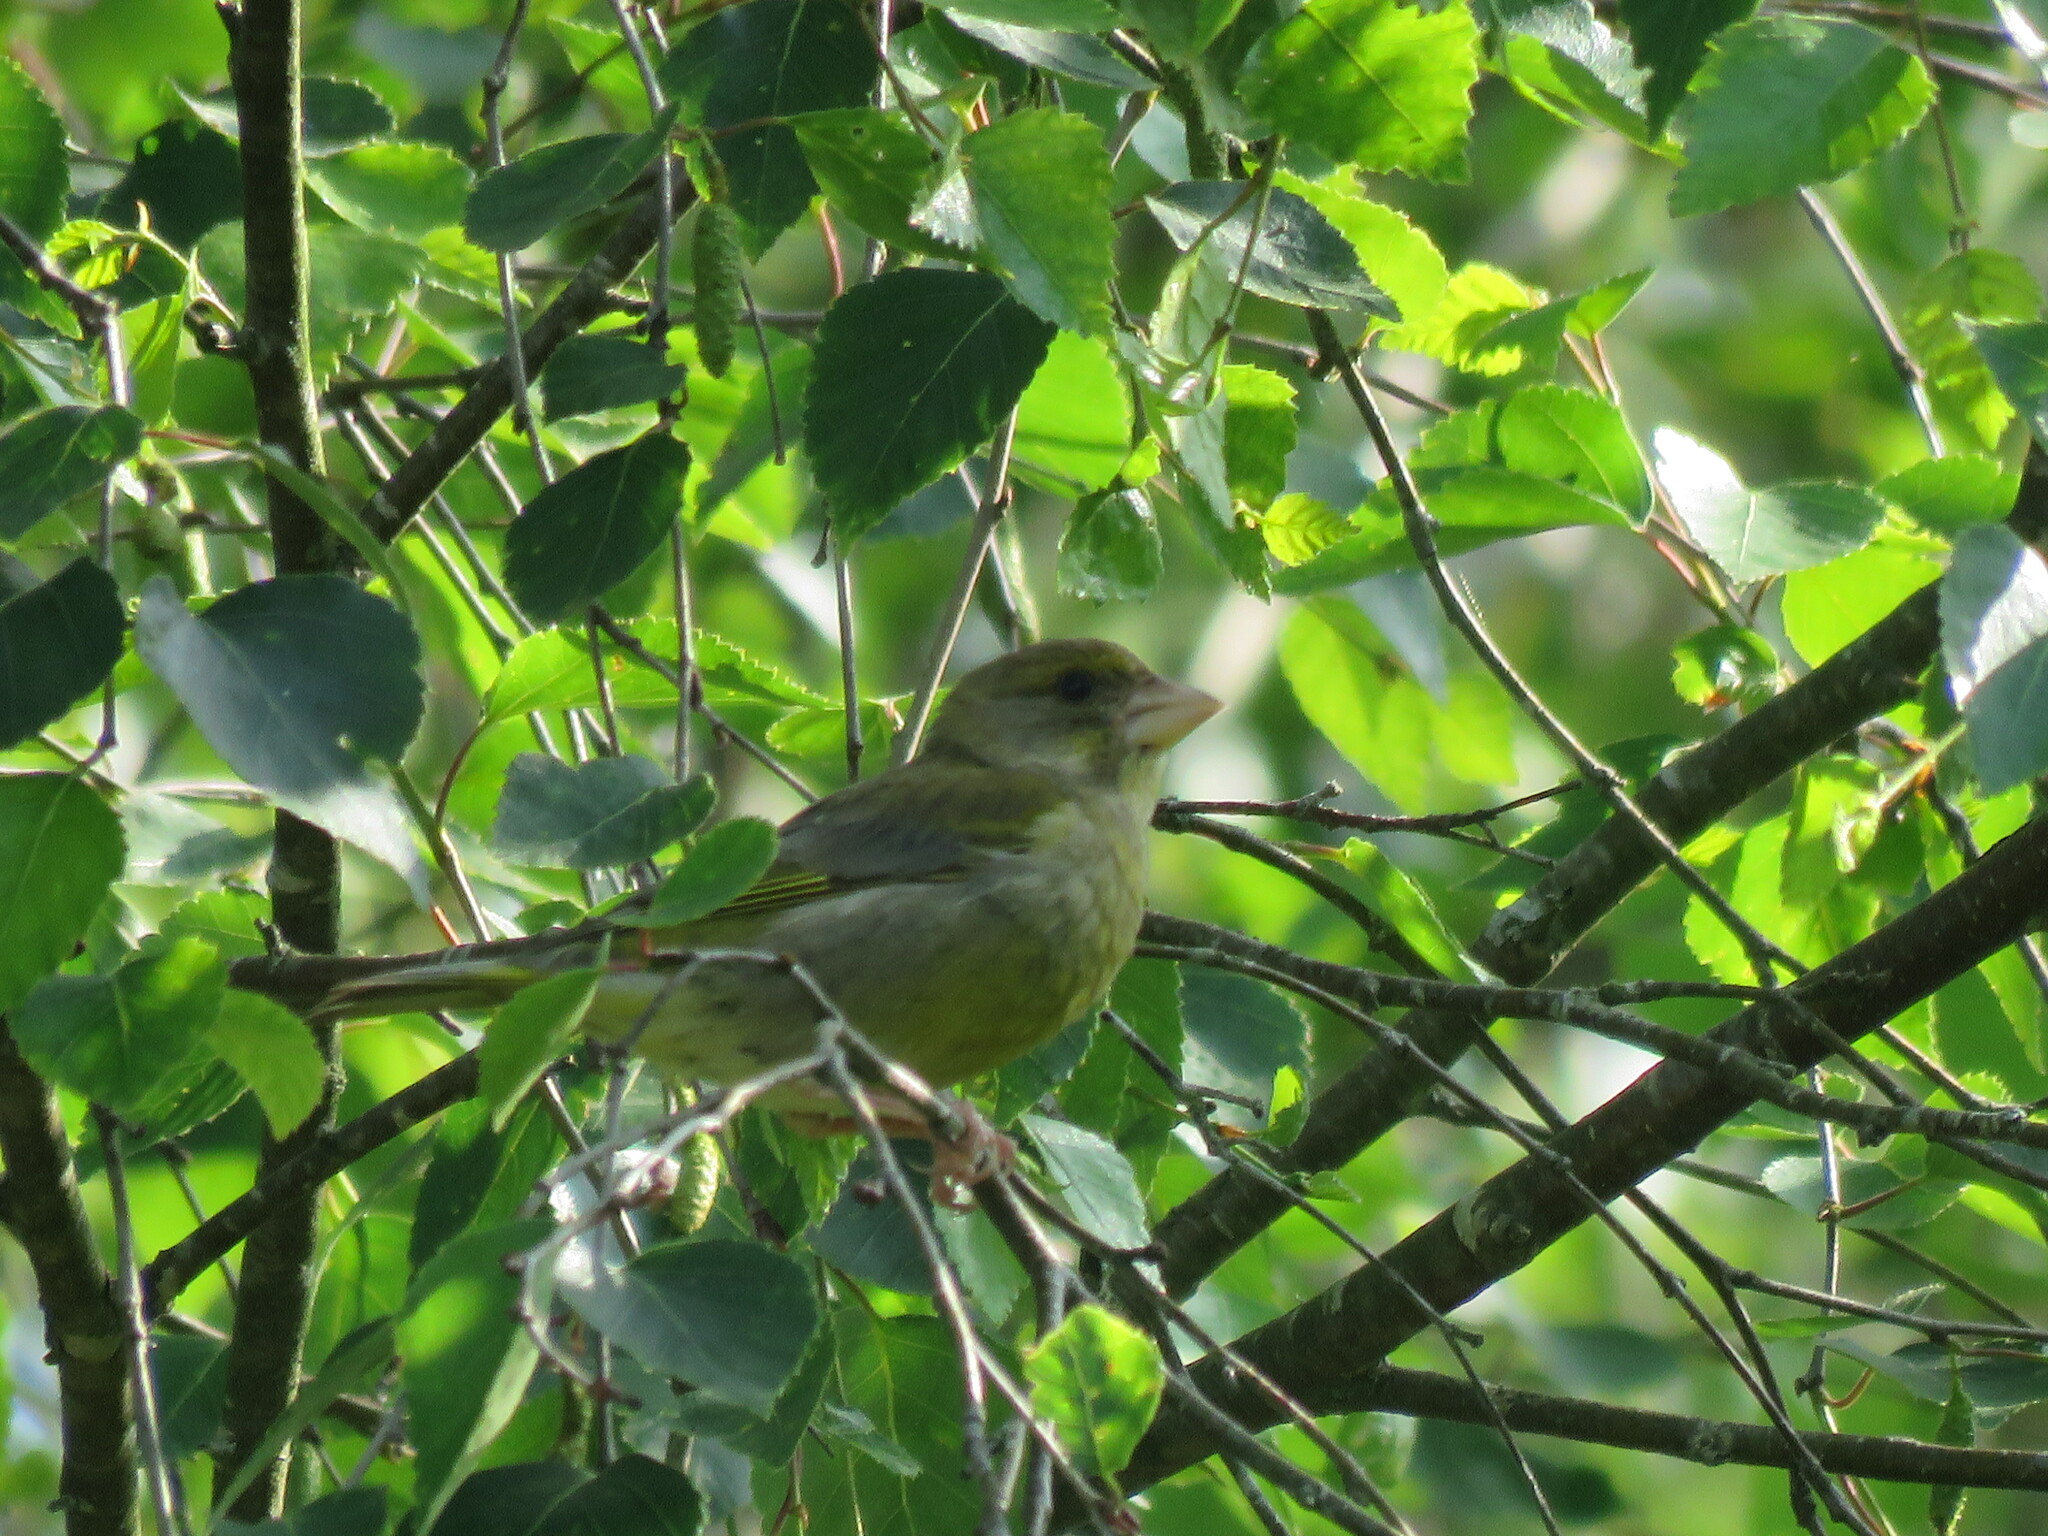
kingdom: Plantae
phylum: Tracheophyta
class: Liliopsida
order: Poales
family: Poaceae
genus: Chloris
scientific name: Chloris chloris
